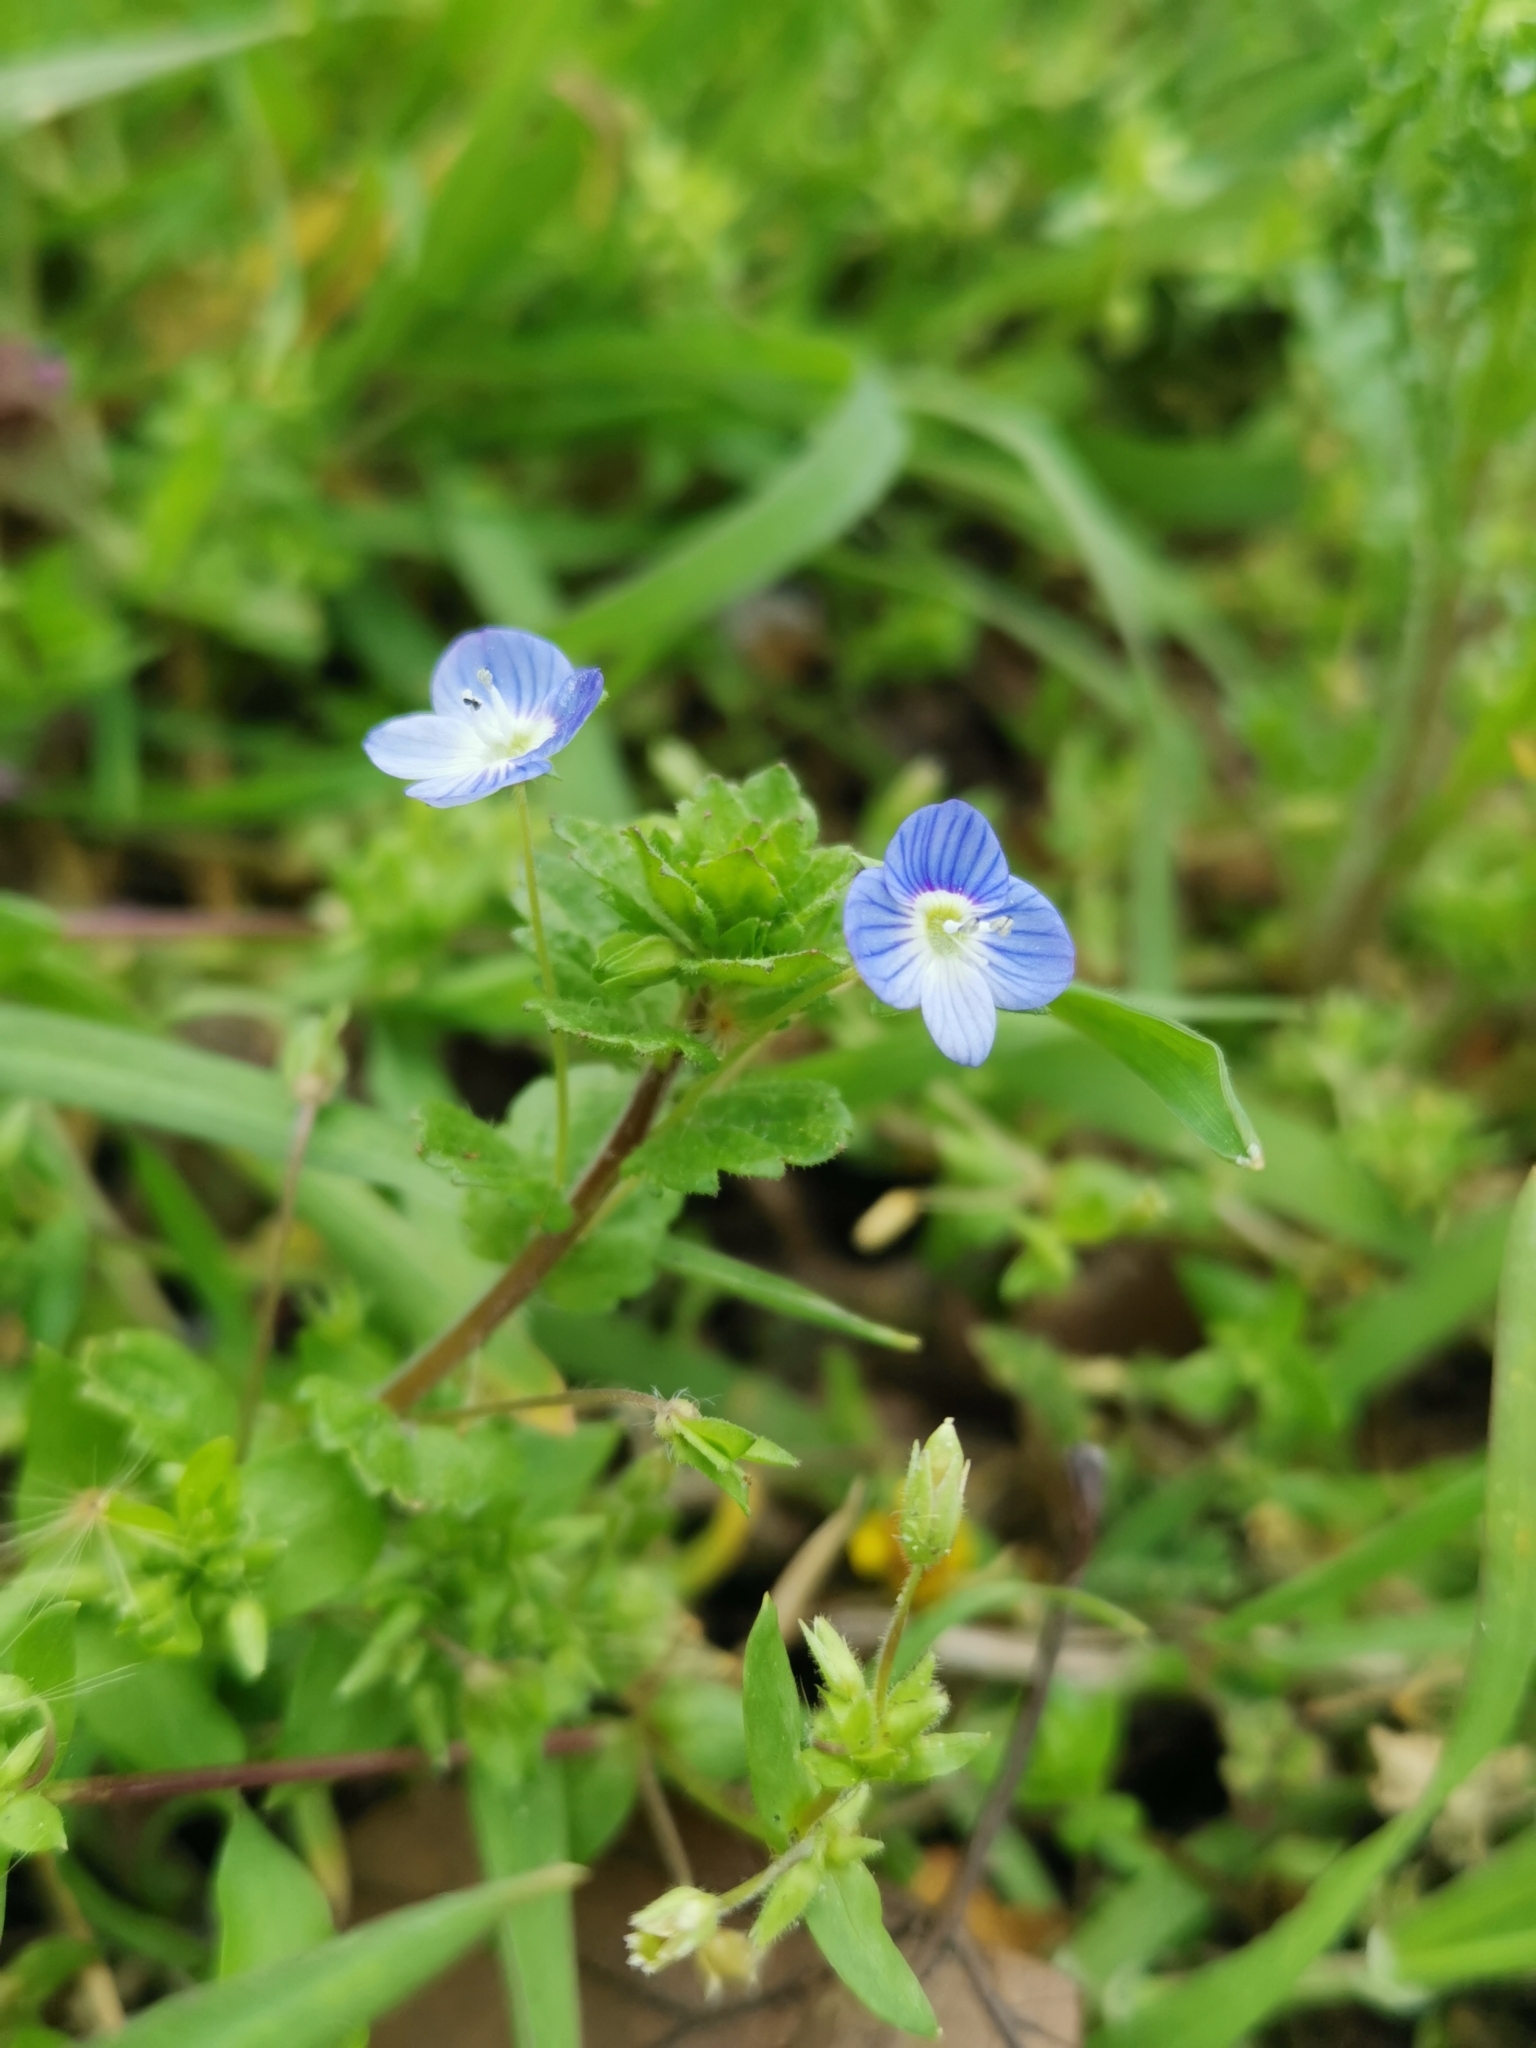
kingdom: Plantae
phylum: Tracheophyta
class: Magnoliopsida
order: Lamiales
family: Plantaginaceae
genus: Veronica
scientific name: Veronica persica
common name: Common field-speedwell
